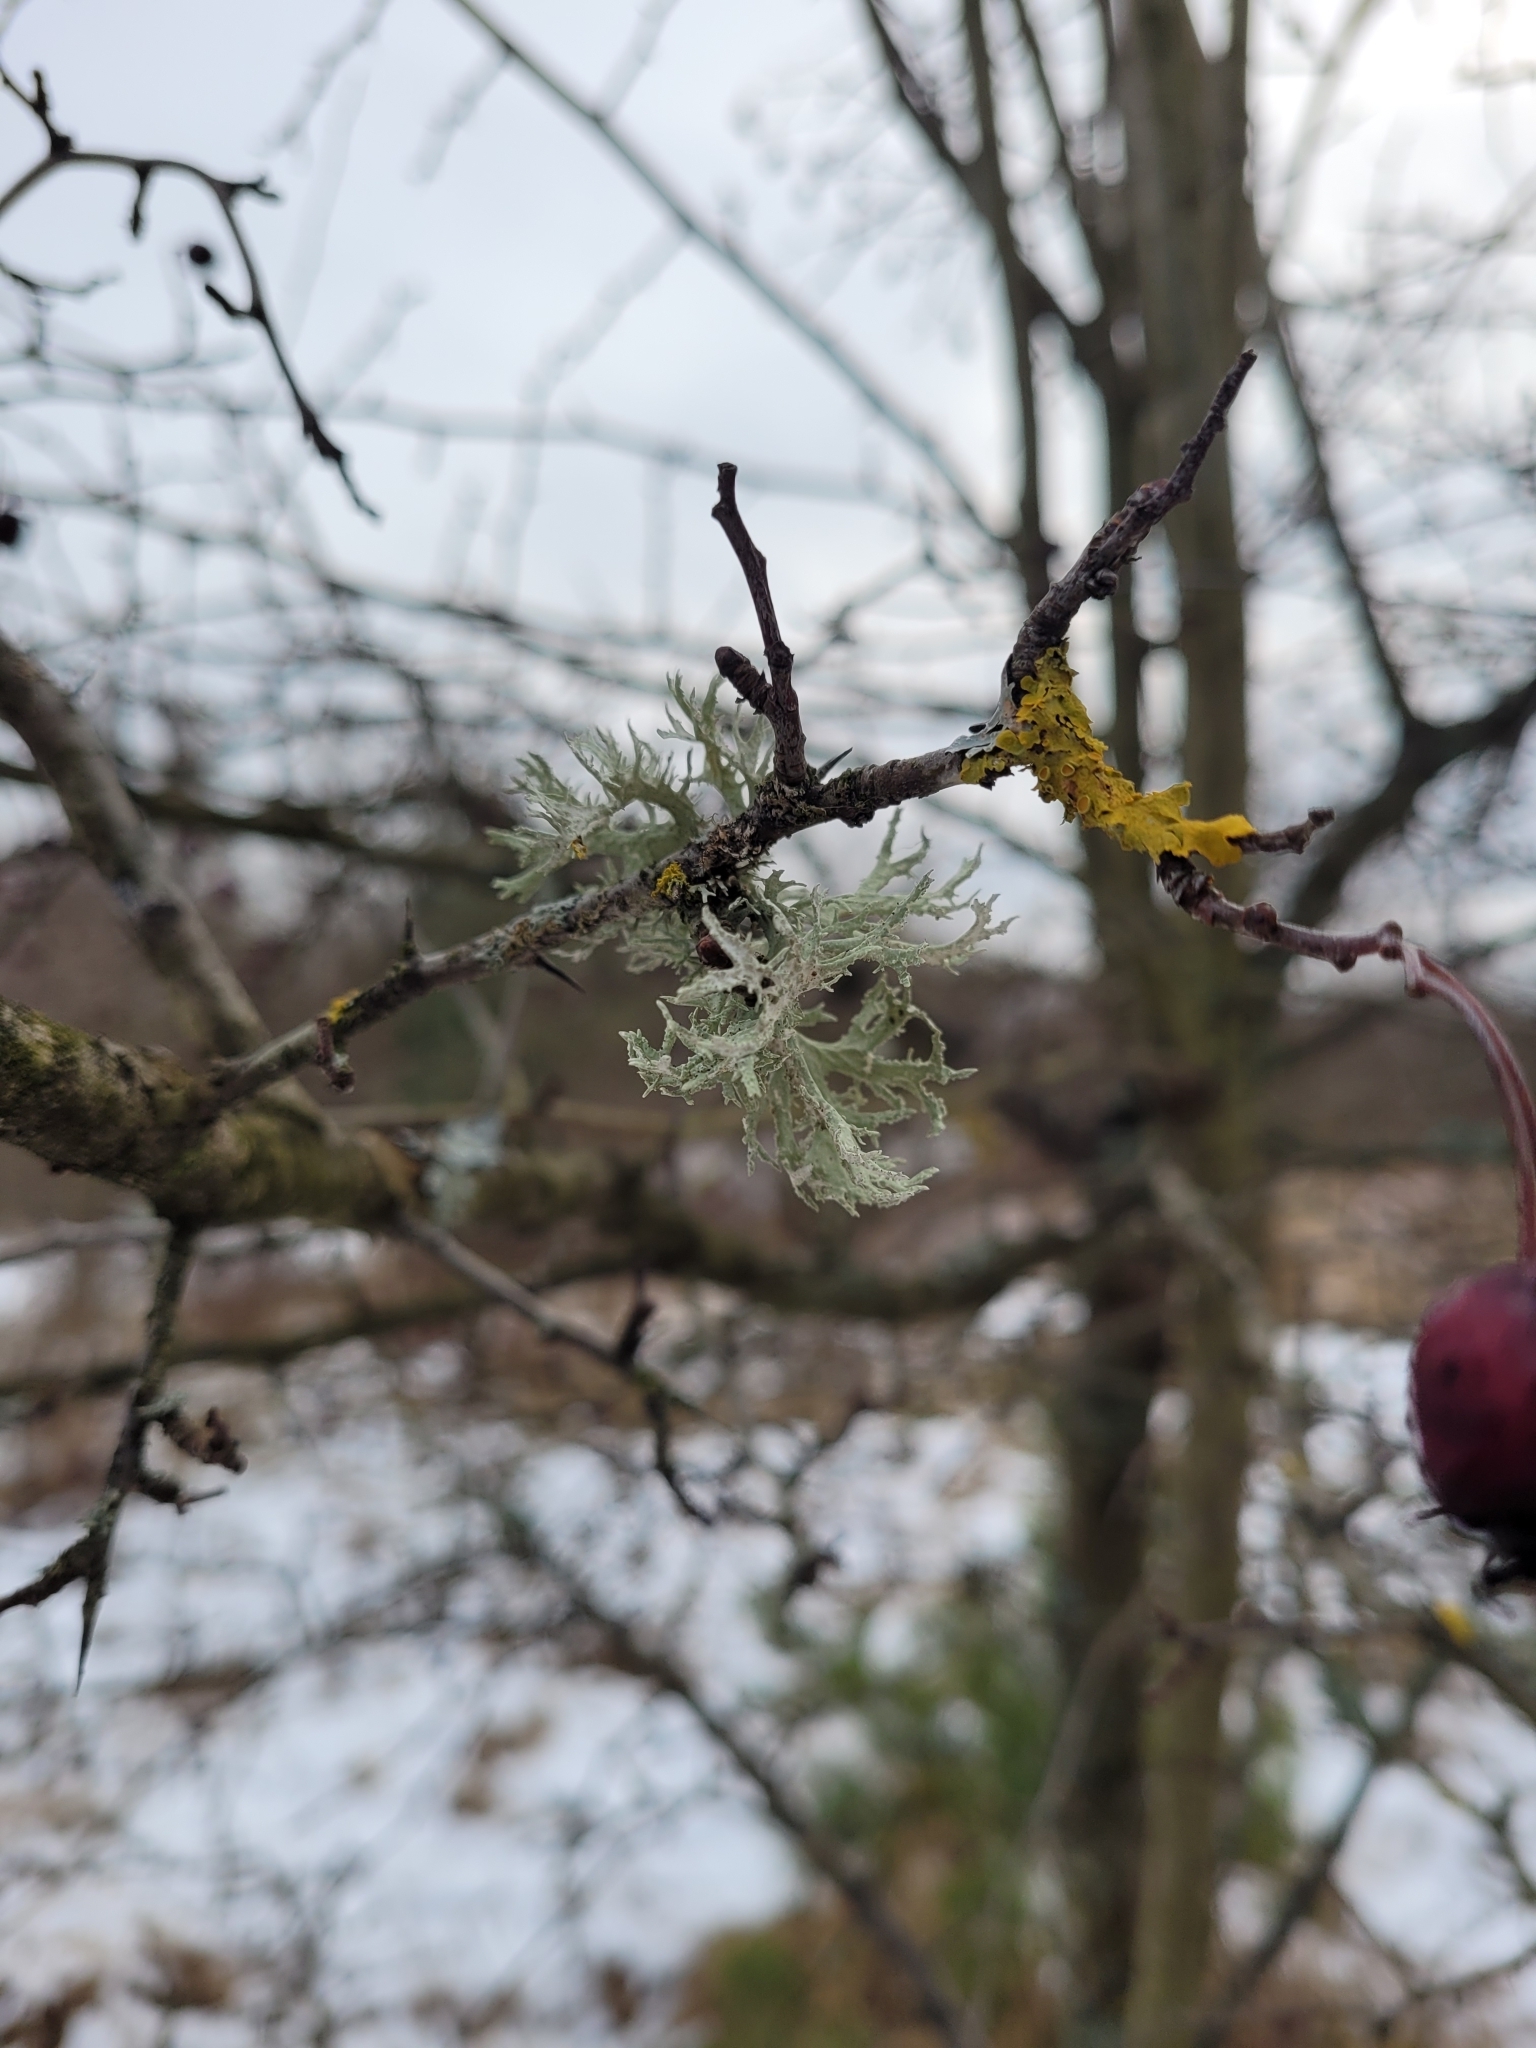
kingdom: Fungi
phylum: Ascomycota
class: Lecanoromycetes
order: Lecanorales
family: Parmeliaceae
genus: Evernia
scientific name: Evernia prunastri
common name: Oak moss
